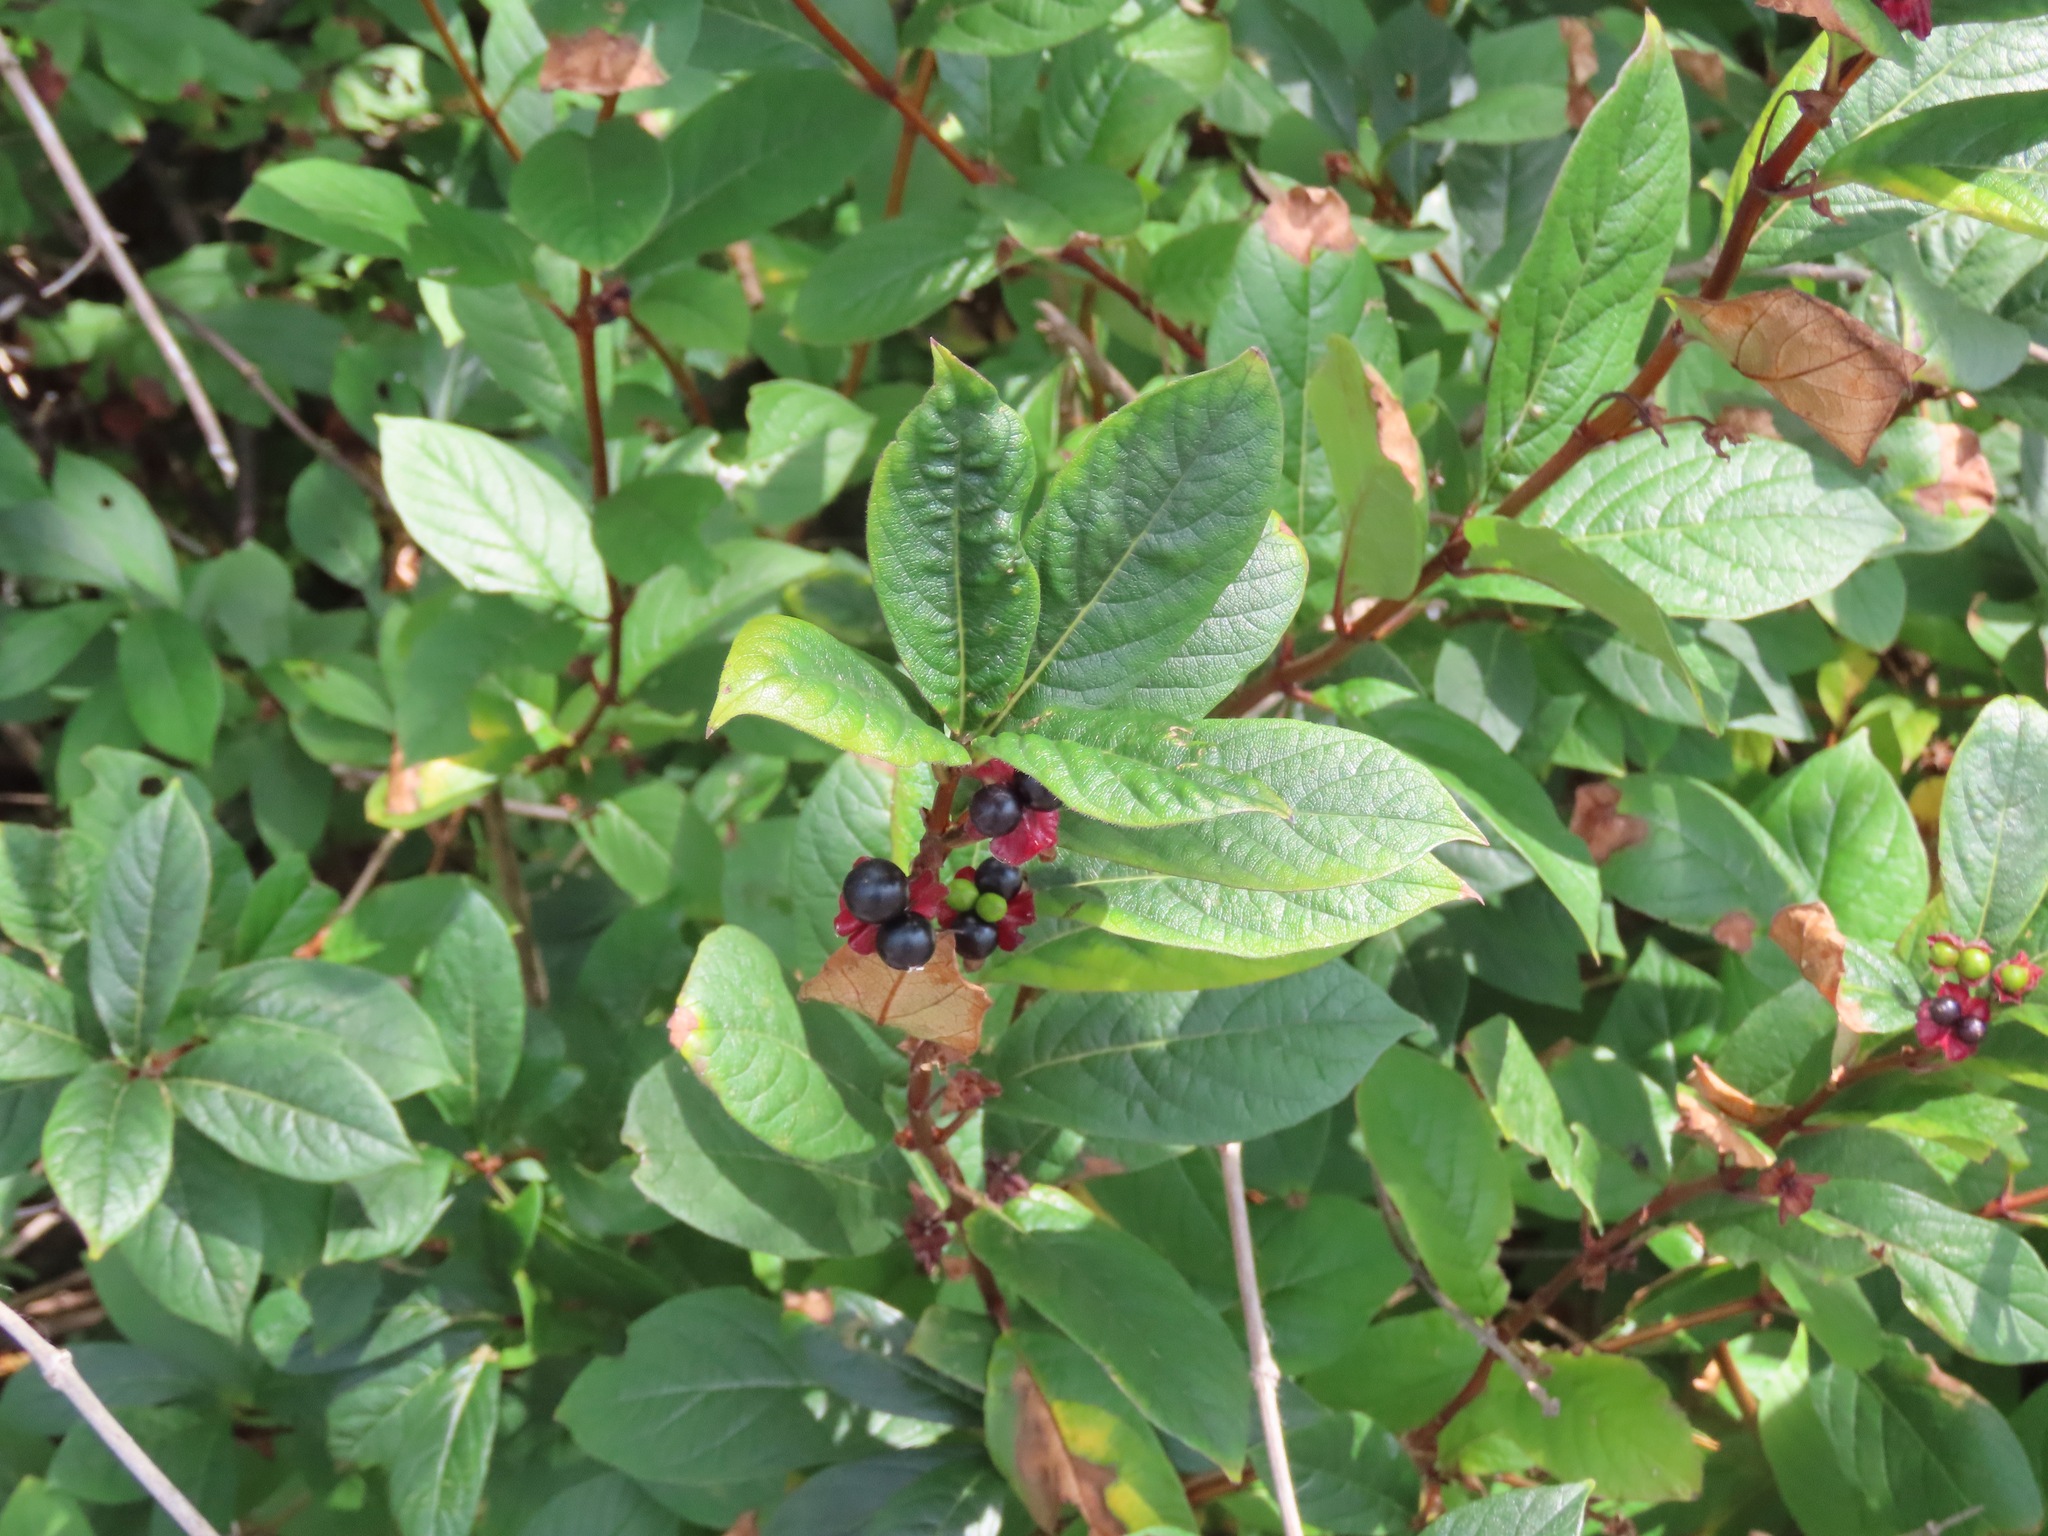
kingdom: Plantae
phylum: Tracheophyta
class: Magnoliopsida
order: Dipsacales
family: Caprifoliaceae
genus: Lonicera
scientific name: Lonicera involucrata
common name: Californian honeysuckle
